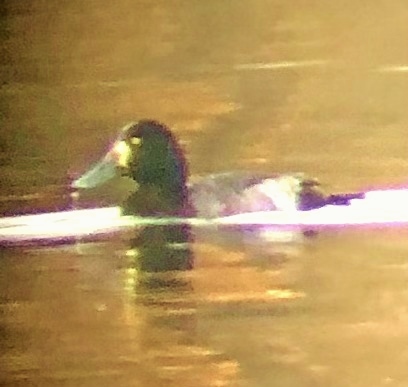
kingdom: Animalia
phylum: Chordata
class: Aves
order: Anseriformes
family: Anatidae
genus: Aythya
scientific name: Aythya marila
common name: Greater scaup
